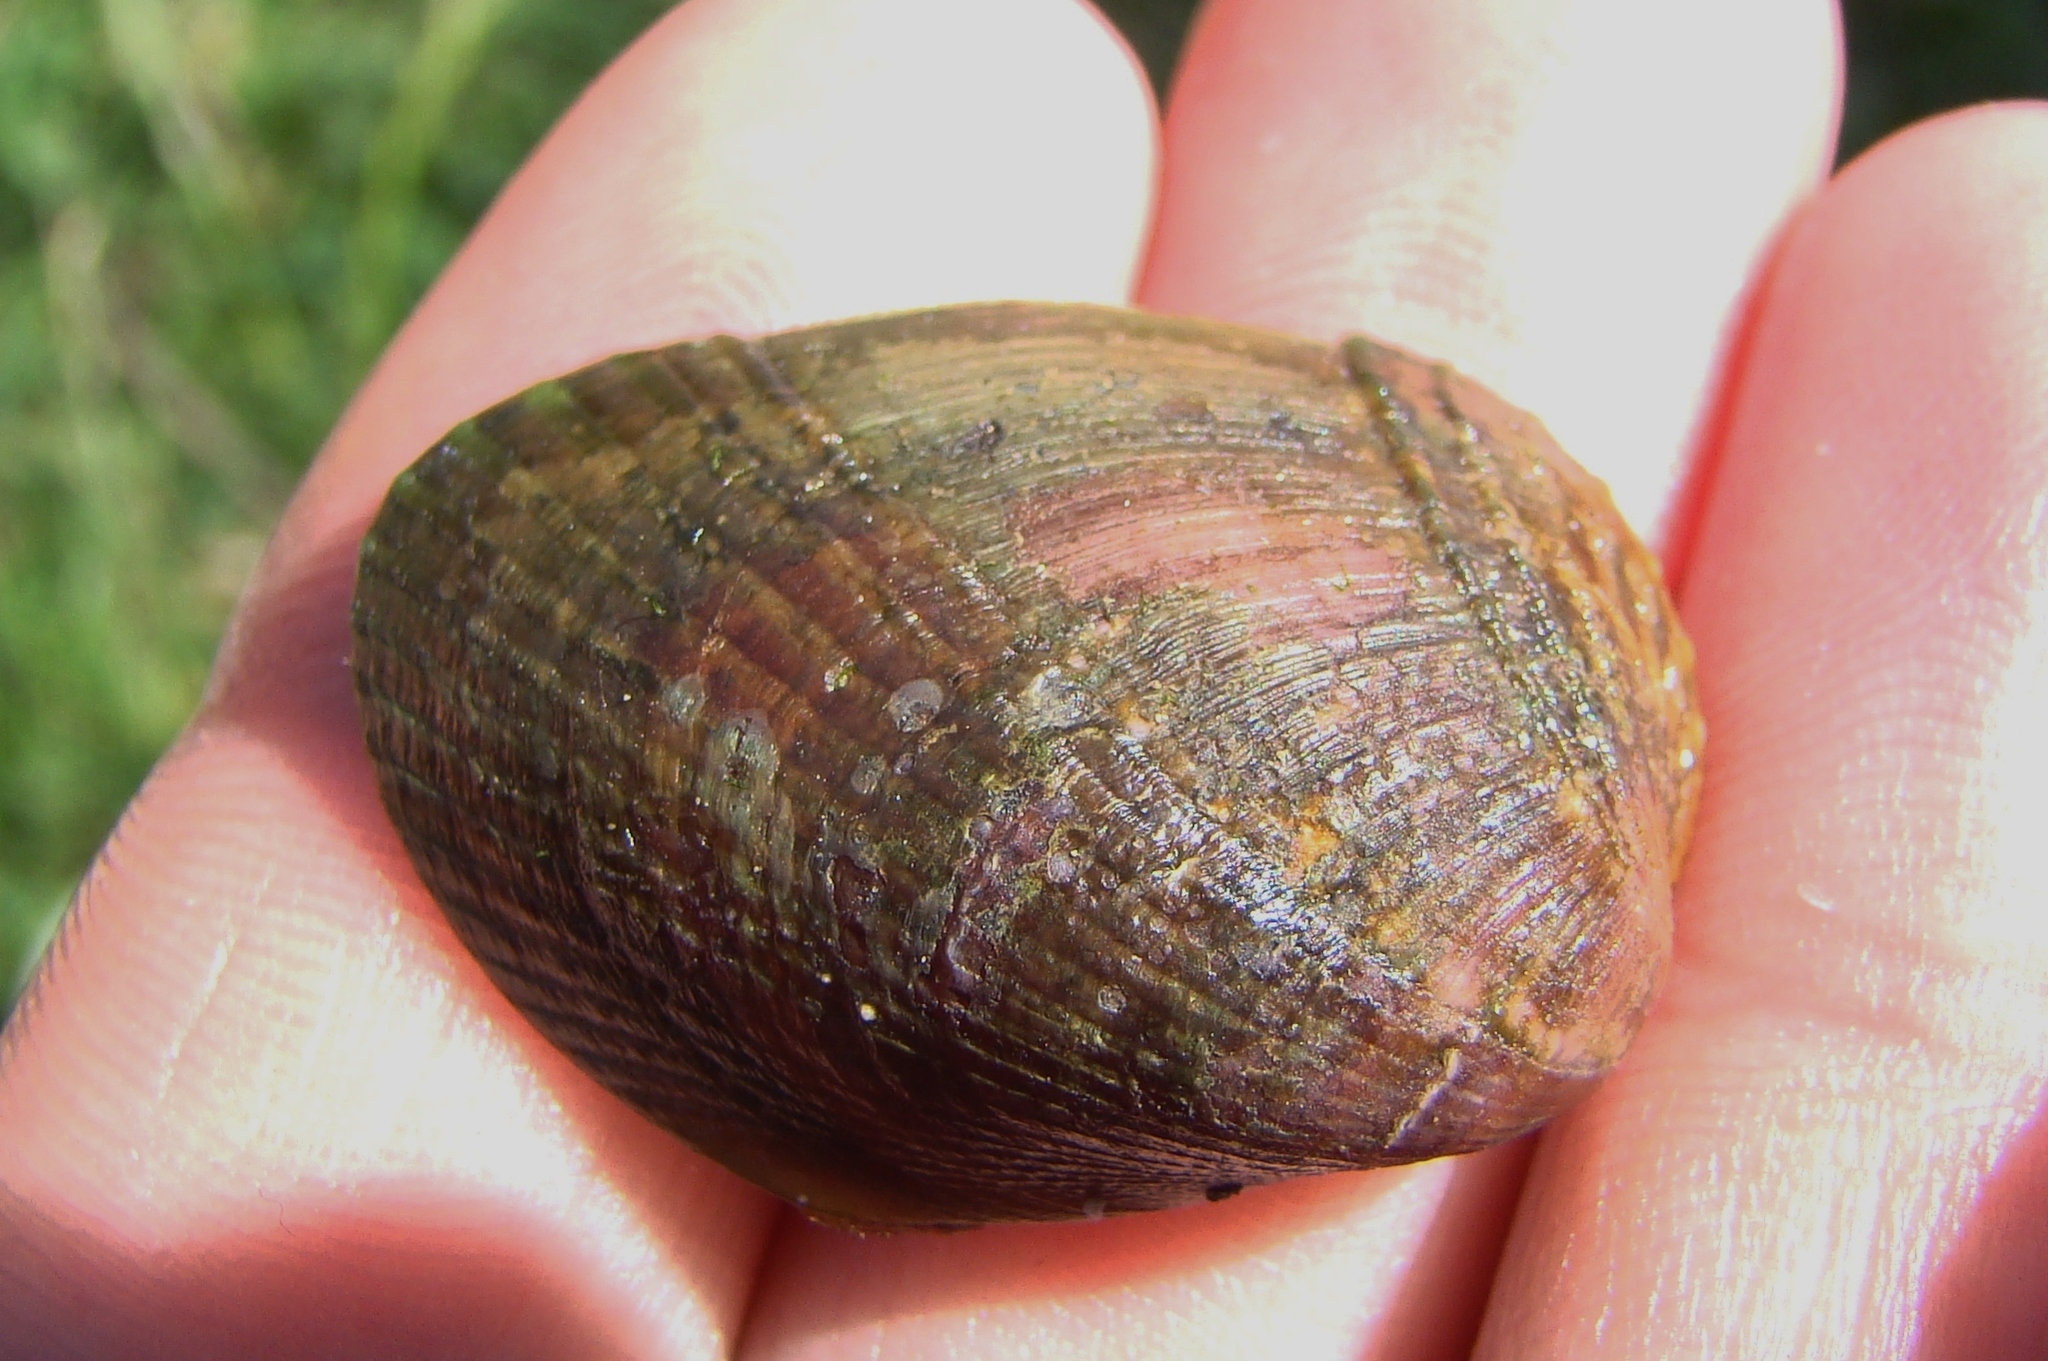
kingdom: Animalia
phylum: Mollusca
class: Bivalvia
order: Mytilida
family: Mytilidae
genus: Musculus
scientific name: Musculus impactus
